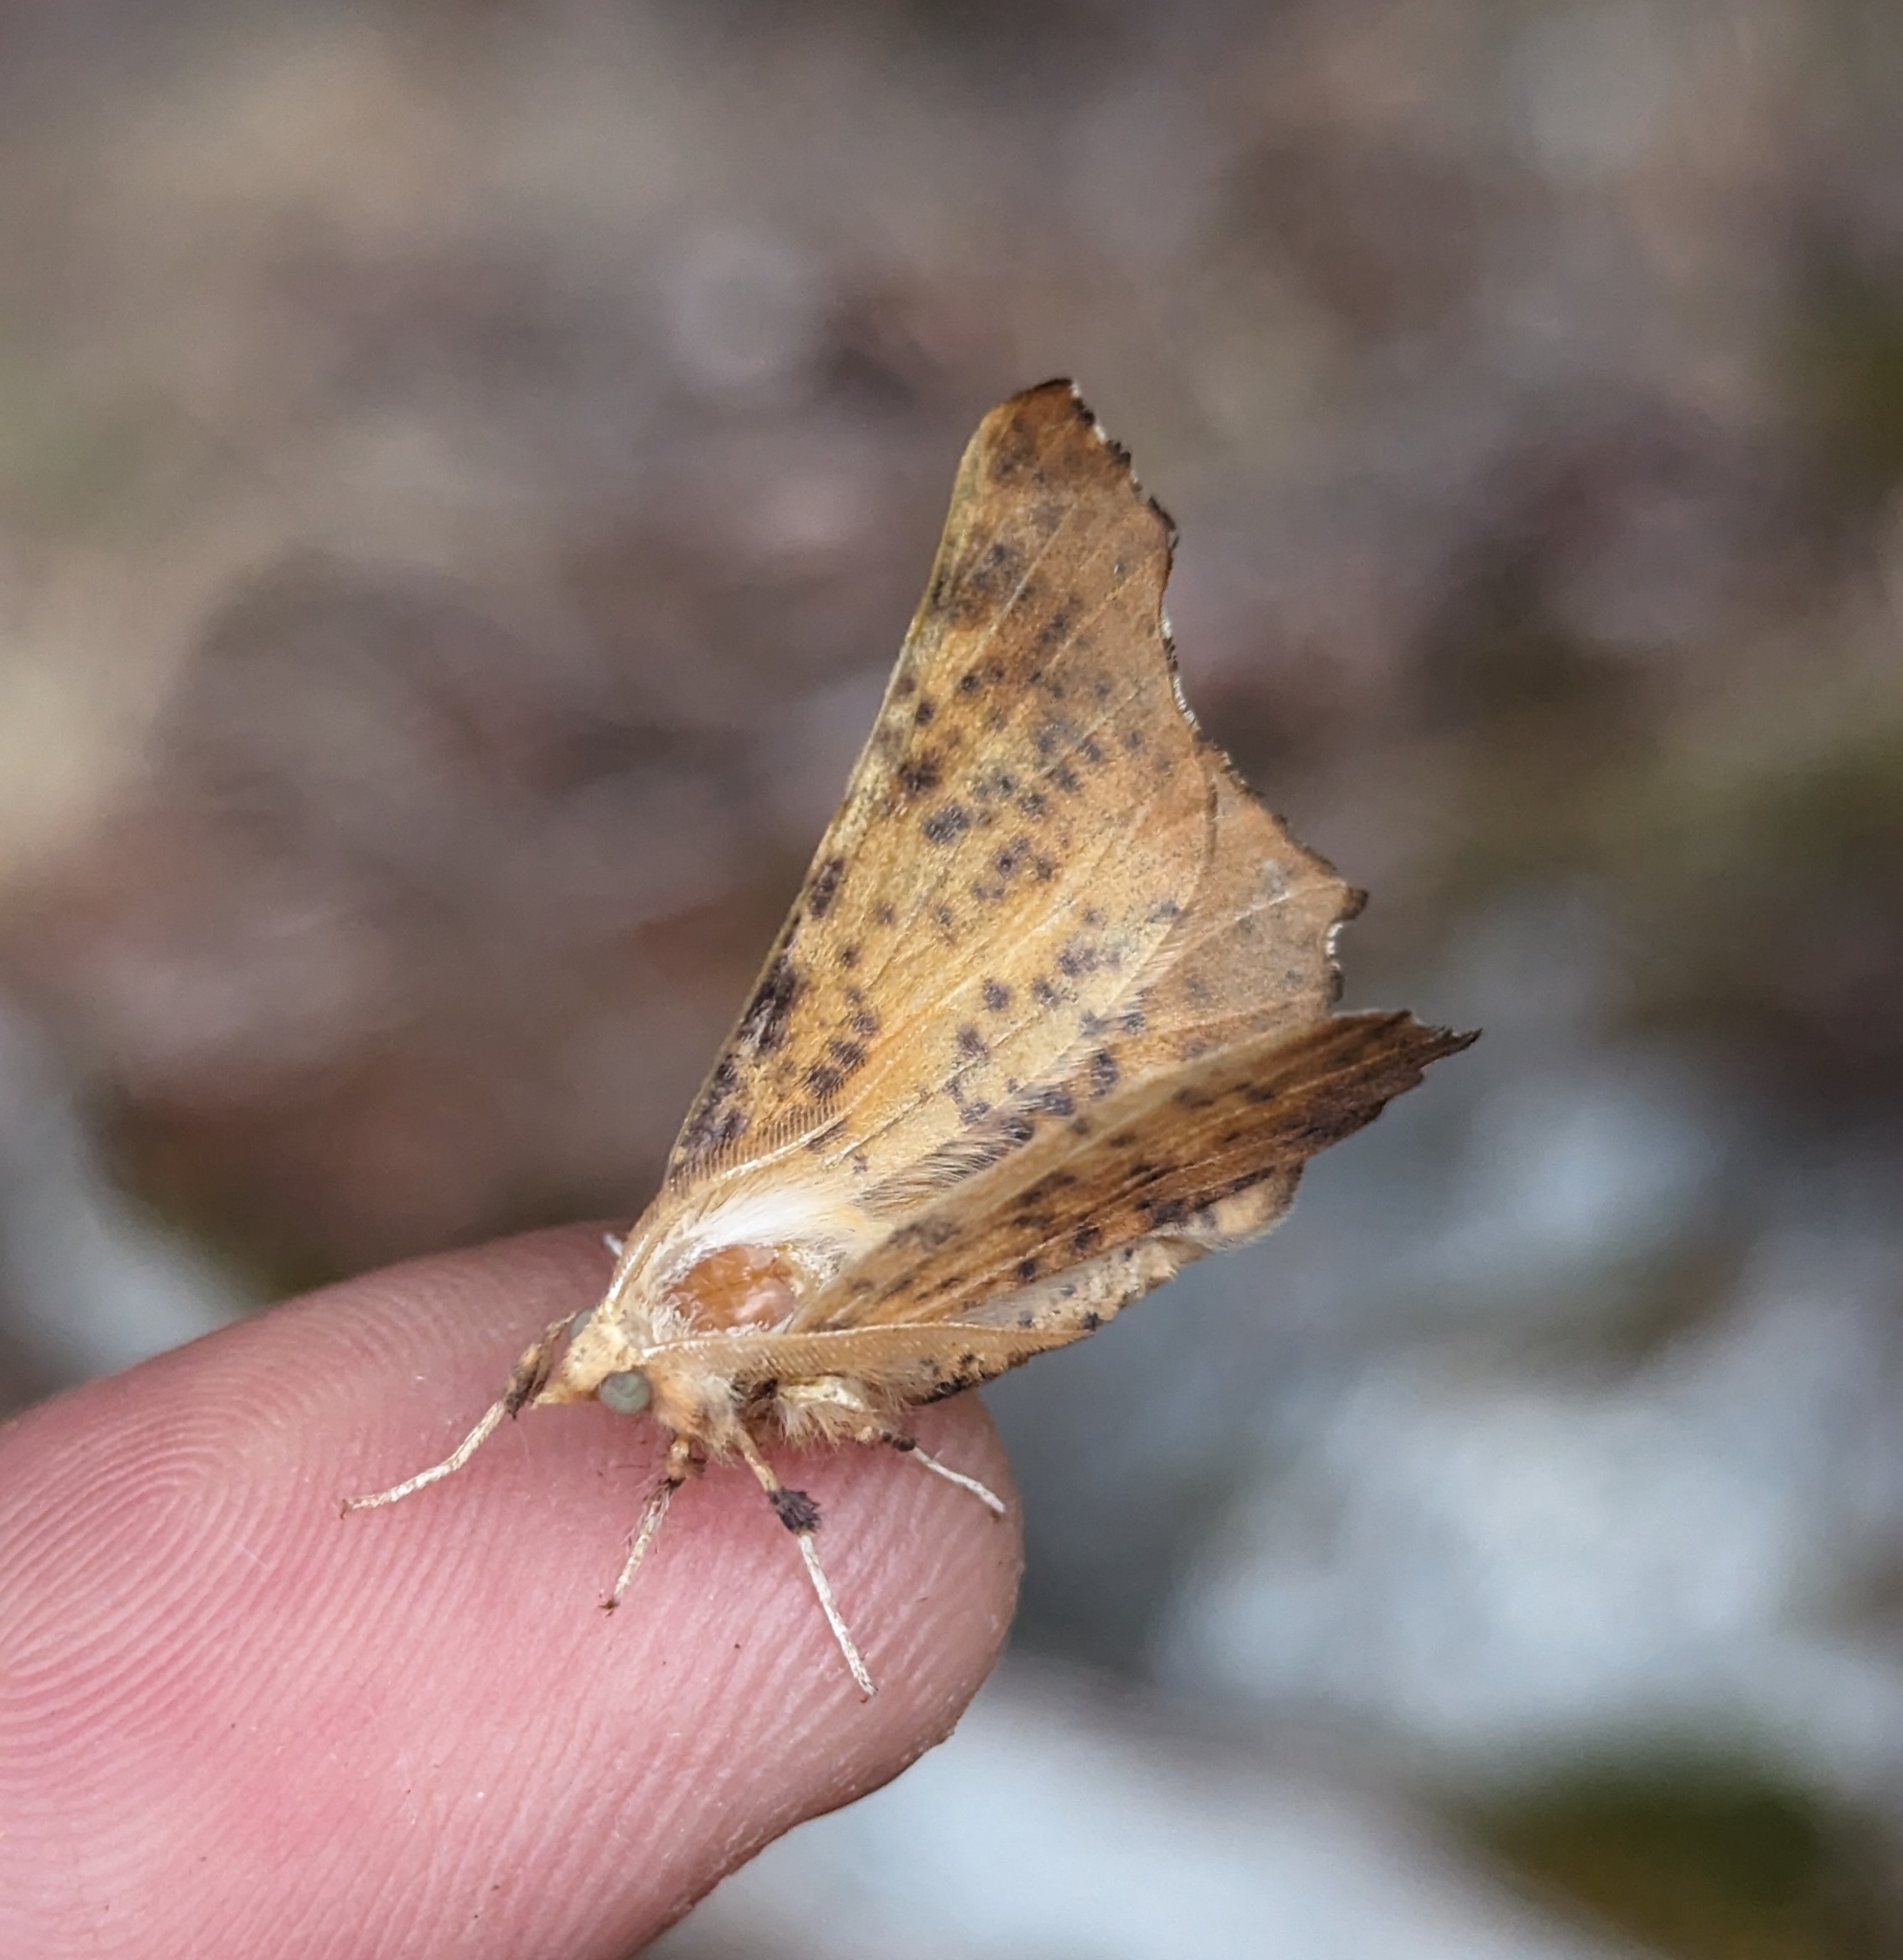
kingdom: Animalia
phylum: Arthropoda
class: Insecta
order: Lepidoptera
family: Geometridae
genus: Ennomos
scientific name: Ennomos magnaria
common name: Maple spanworm
